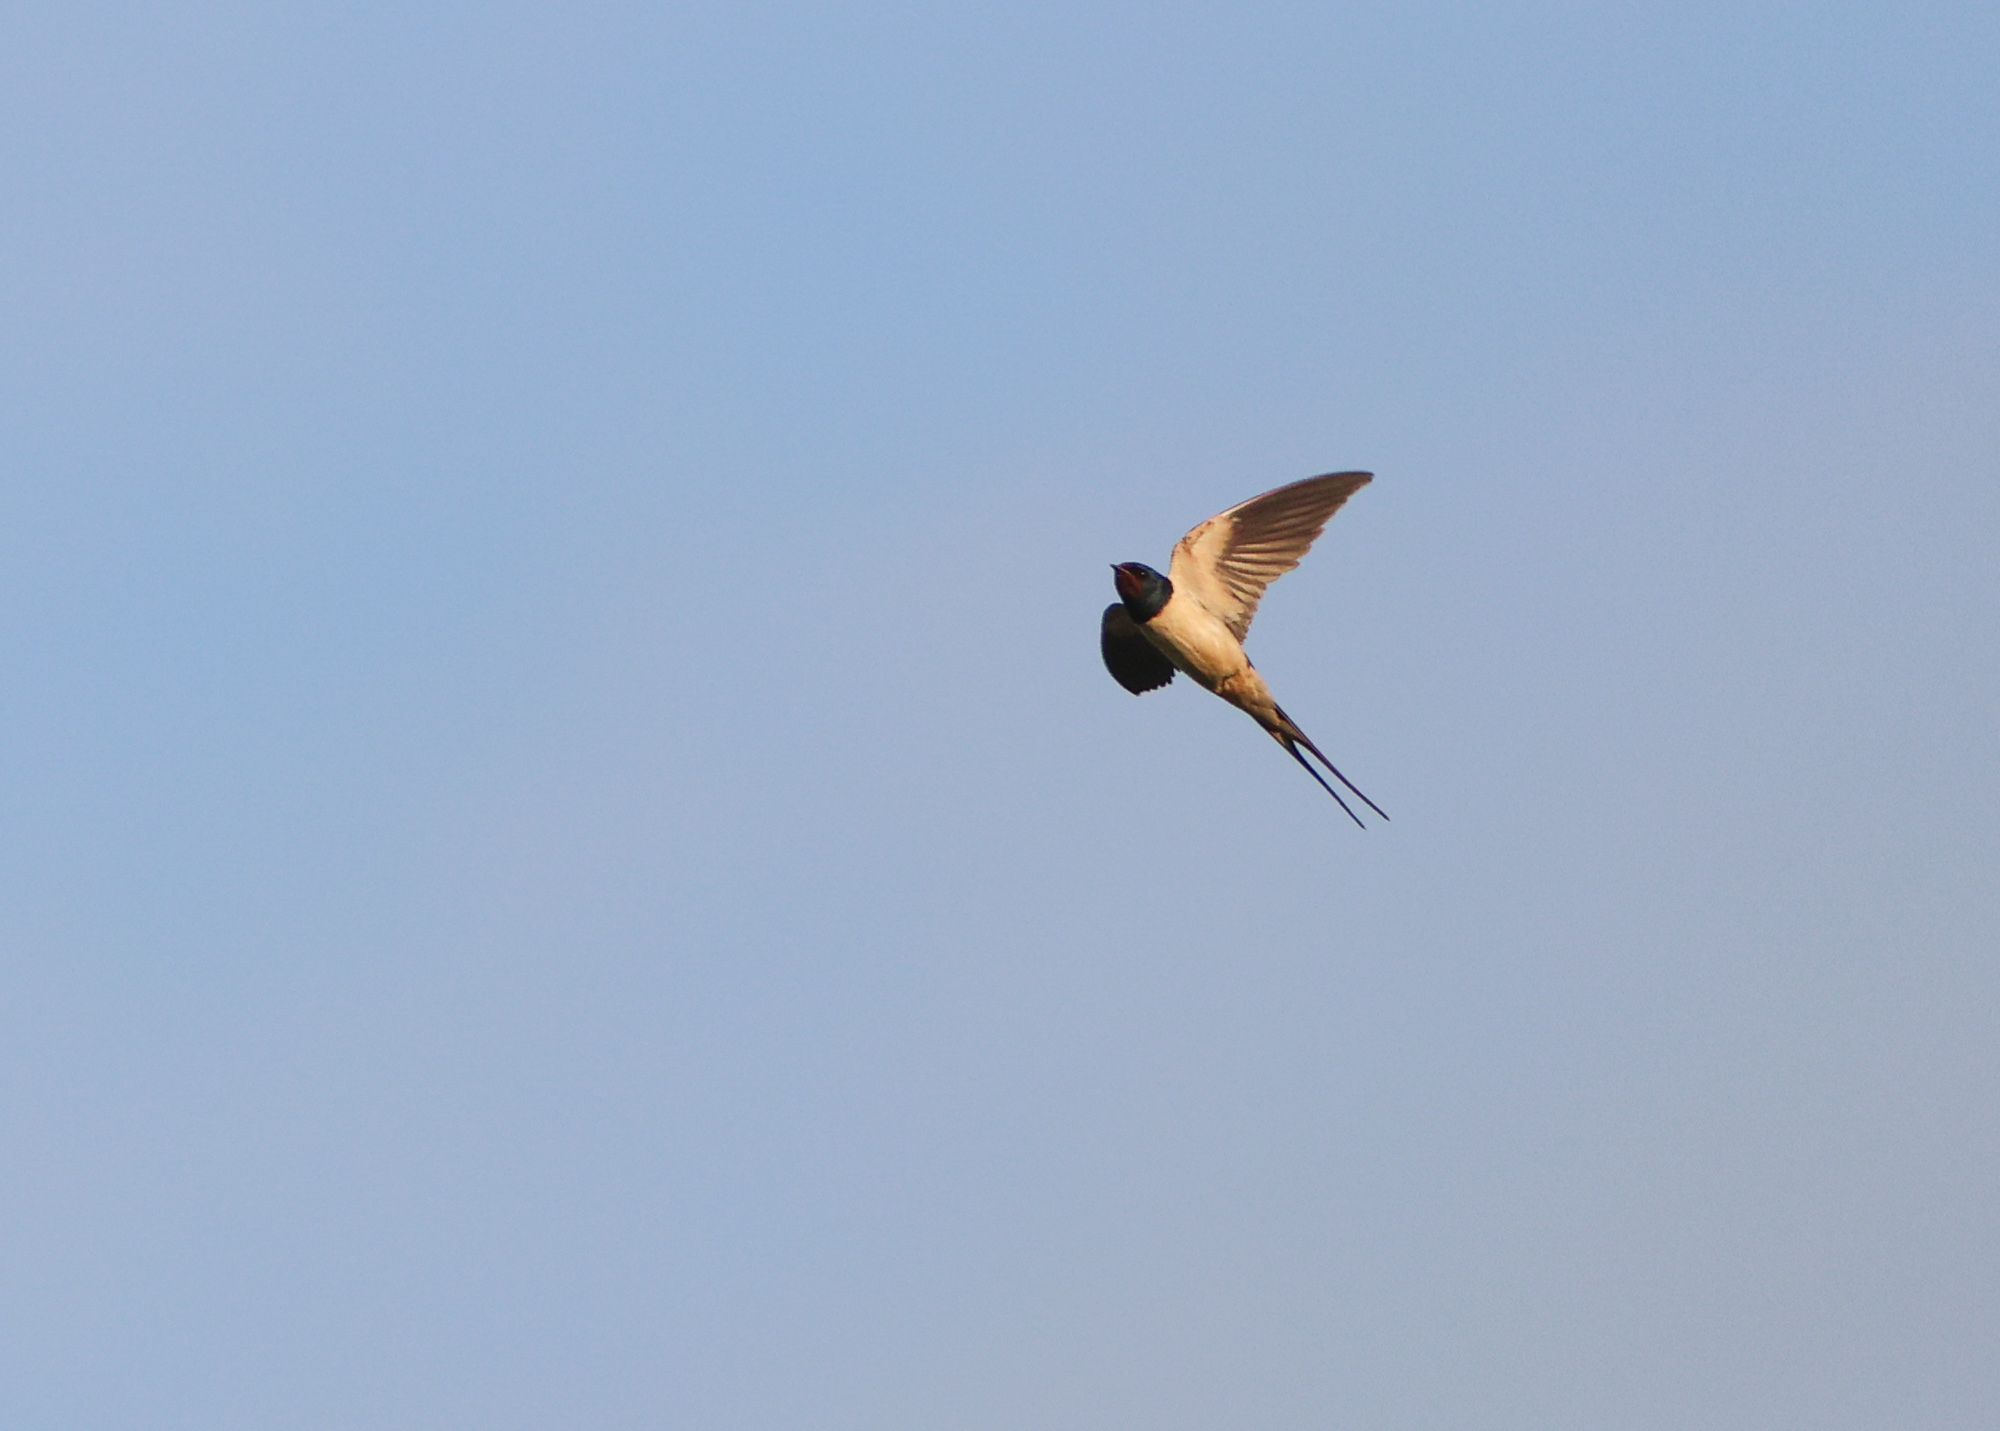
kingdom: Animalia
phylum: Chordata
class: Aves
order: Passeriformes
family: Hirundinidae
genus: Hirundo
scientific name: Hirundo rustica
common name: Barn swallow
